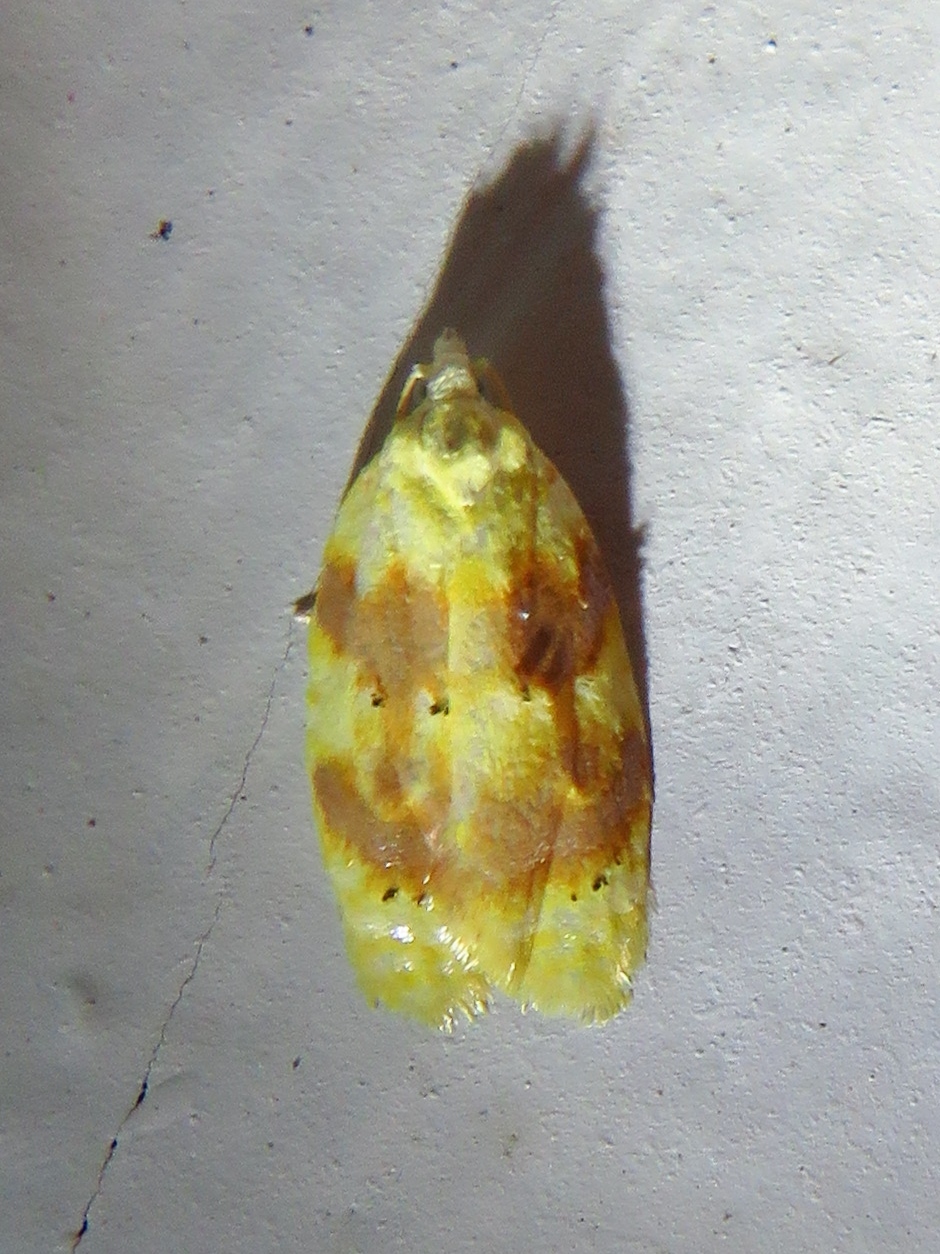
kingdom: Animalia
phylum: Arthropoda
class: Insecta
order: Lepidoptera
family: Tortricidae
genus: Acleris
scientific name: Acleris semipurpurana
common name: Oak leaftier moth
